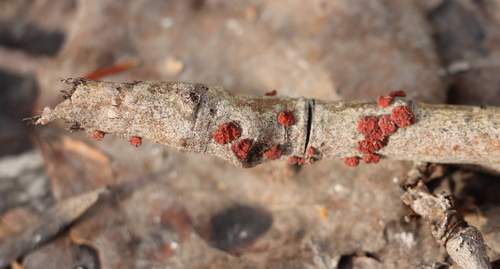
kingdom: Fungi
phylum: Basidiomycota
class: Agaricomycetes
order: Russulales
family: Peniophoraceae
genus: Peniophora
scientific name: Peniophora rufa
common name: Red tree brain fungus
